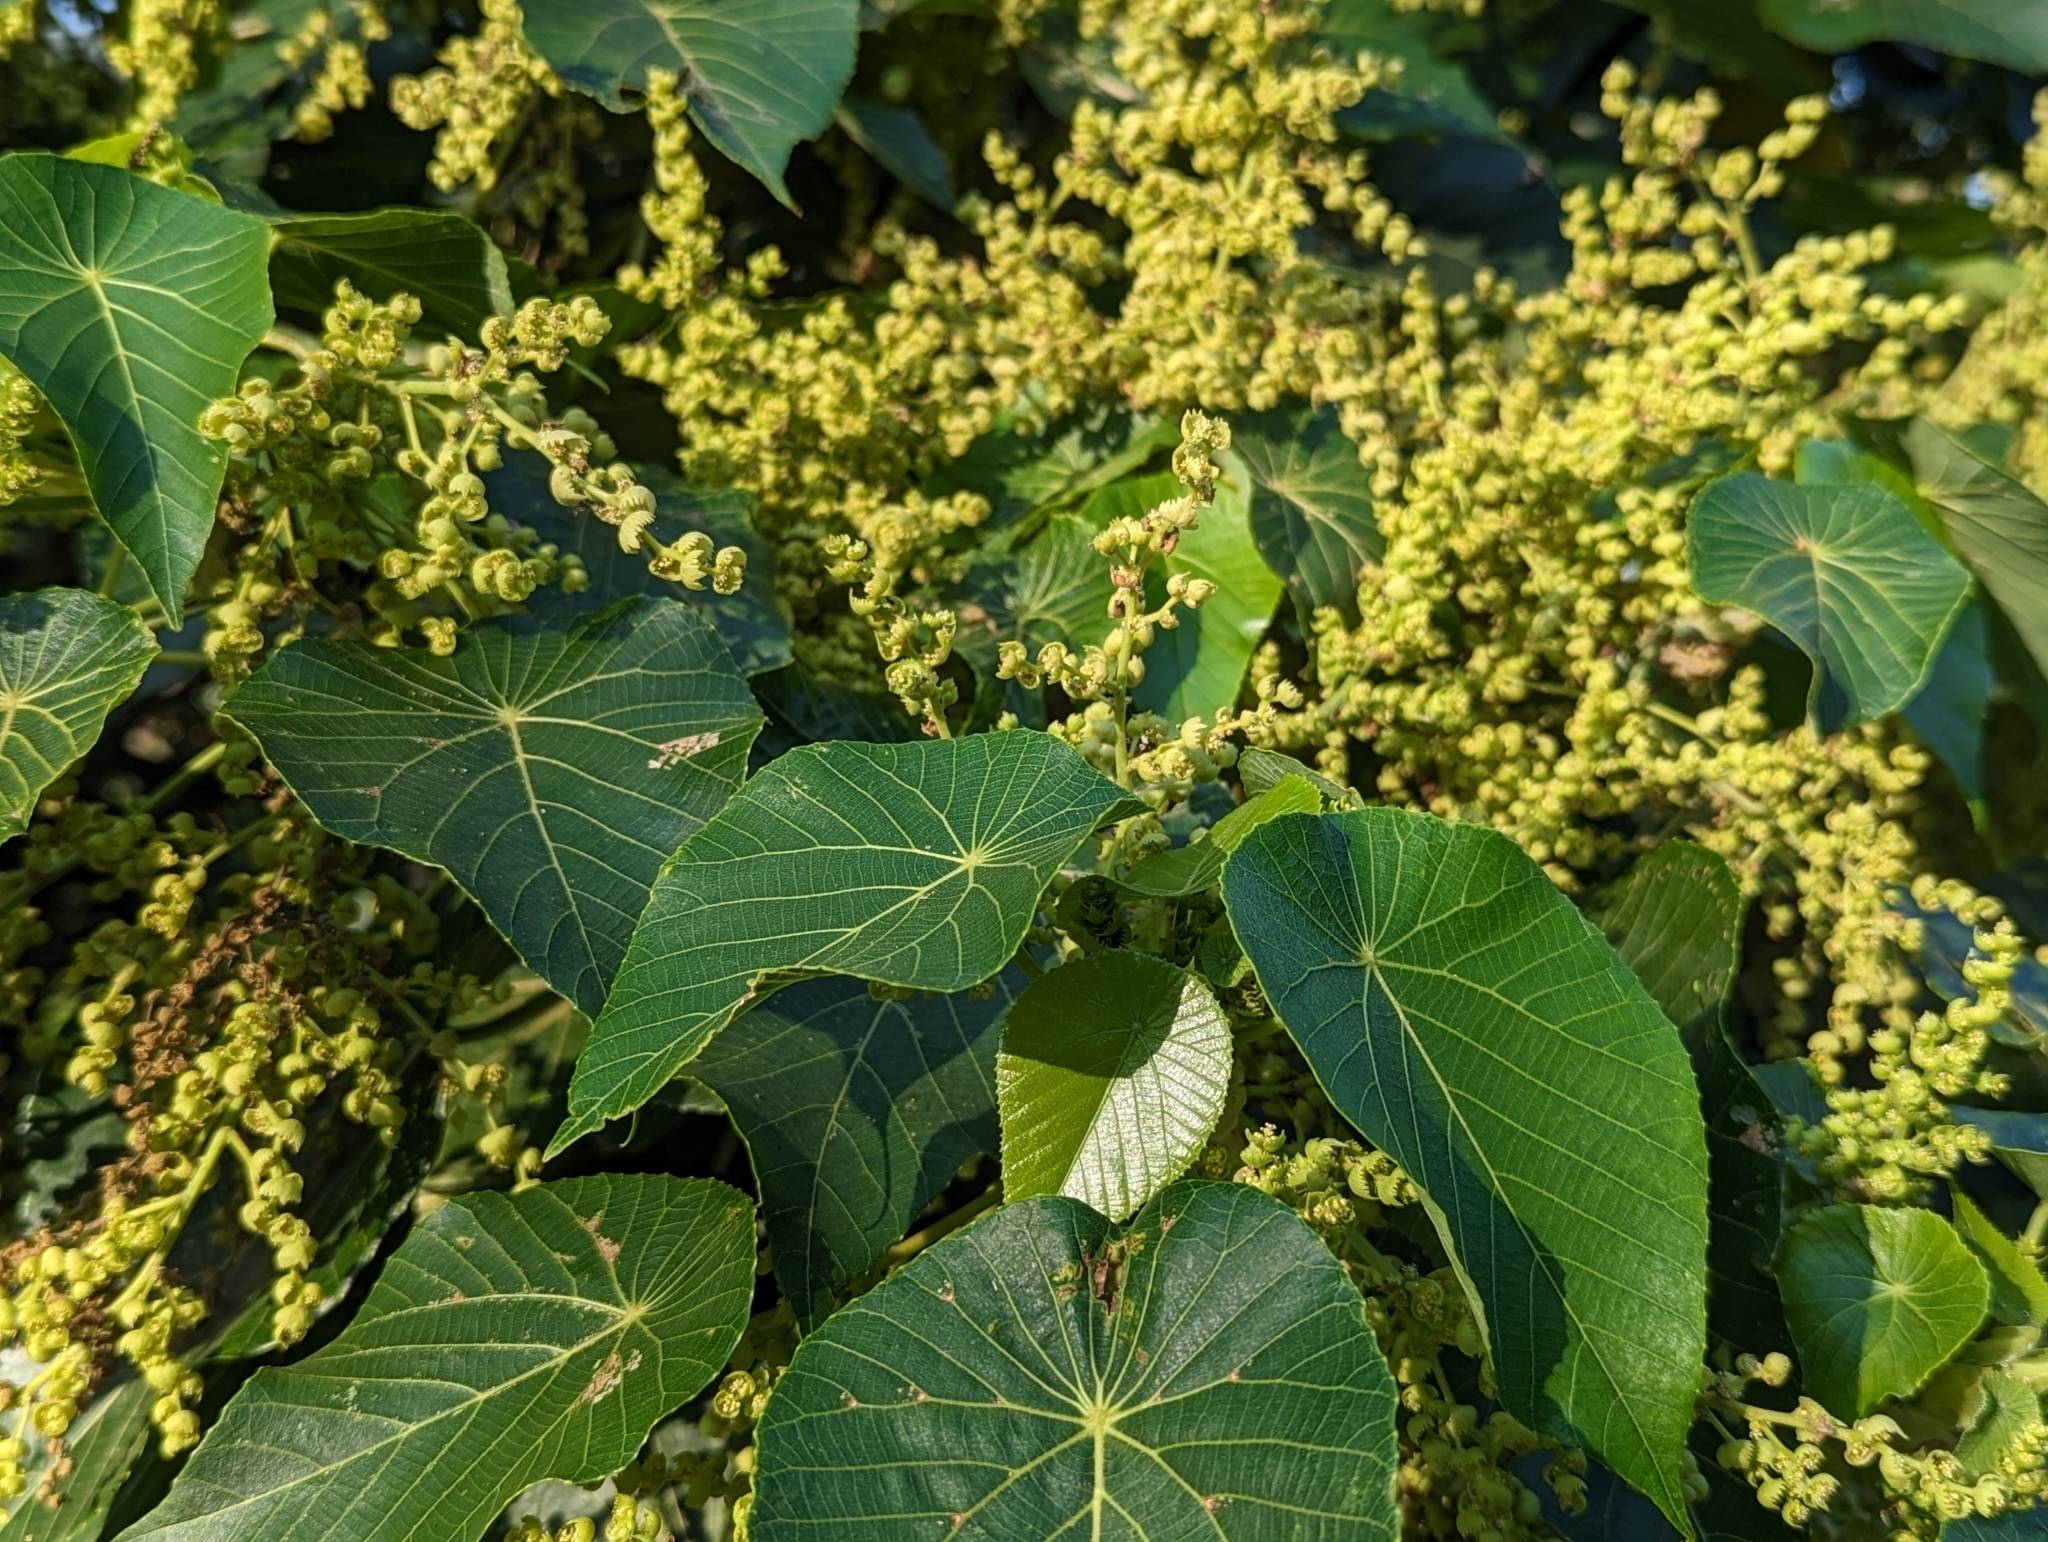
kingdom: Plantae
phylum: Tracheophyta
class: Magnoliopsida
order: Malpighiales
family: Euphorbiaceae
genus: Macaranga
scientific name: Macaranga tanarius
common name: Parasol leaf tree
